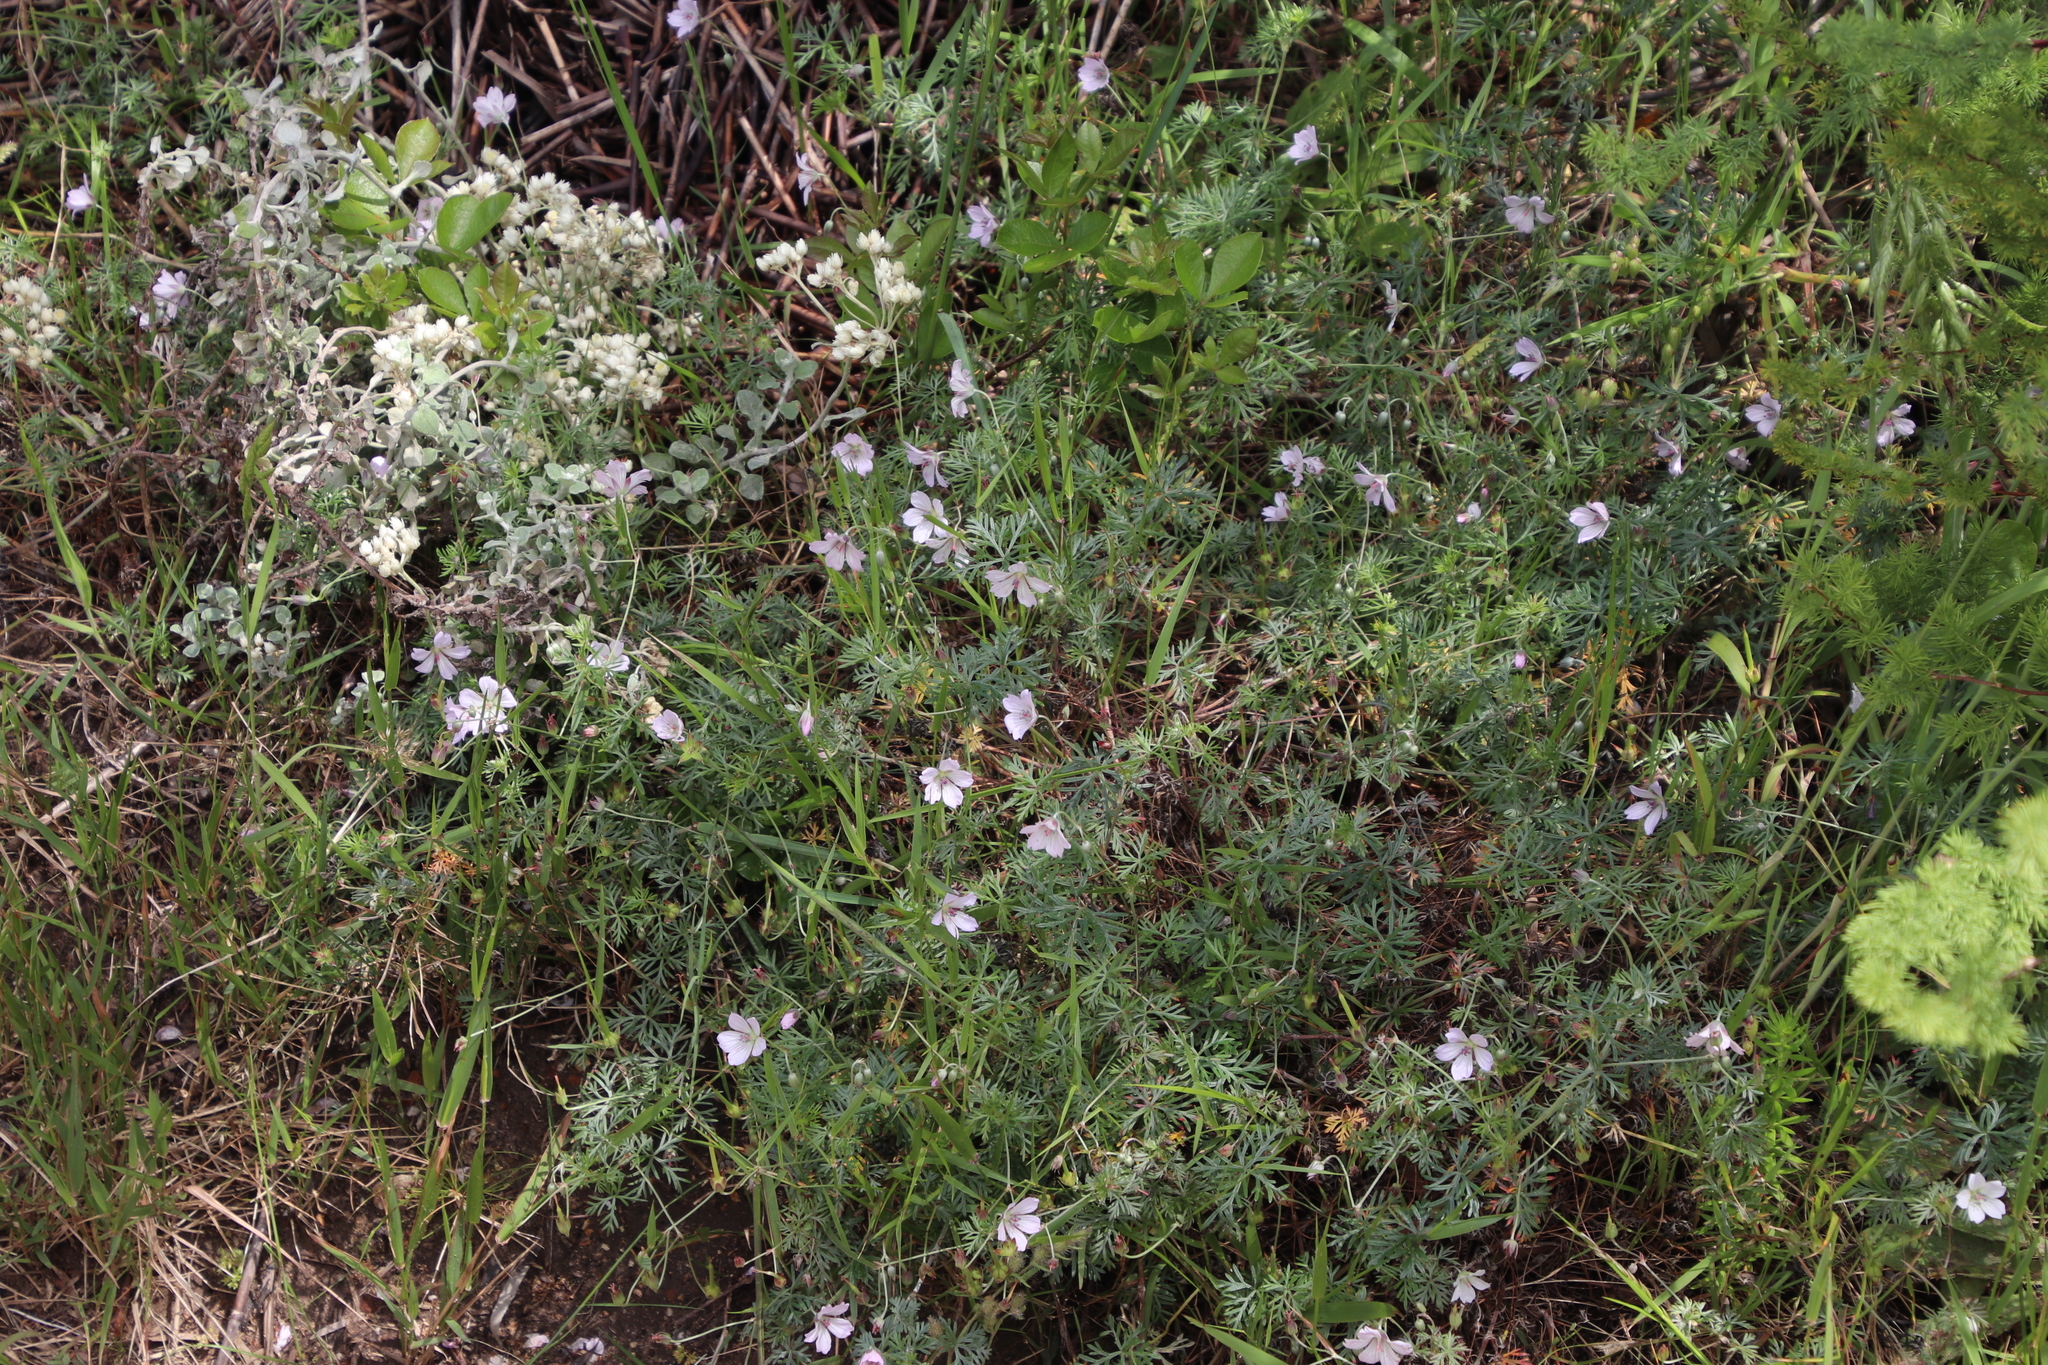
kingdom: Plantae
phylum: Tracheophyta
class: Magnoliopsida
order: Geraniales
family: Geraniaceae
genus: Geranium
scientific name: Geranium incanum
